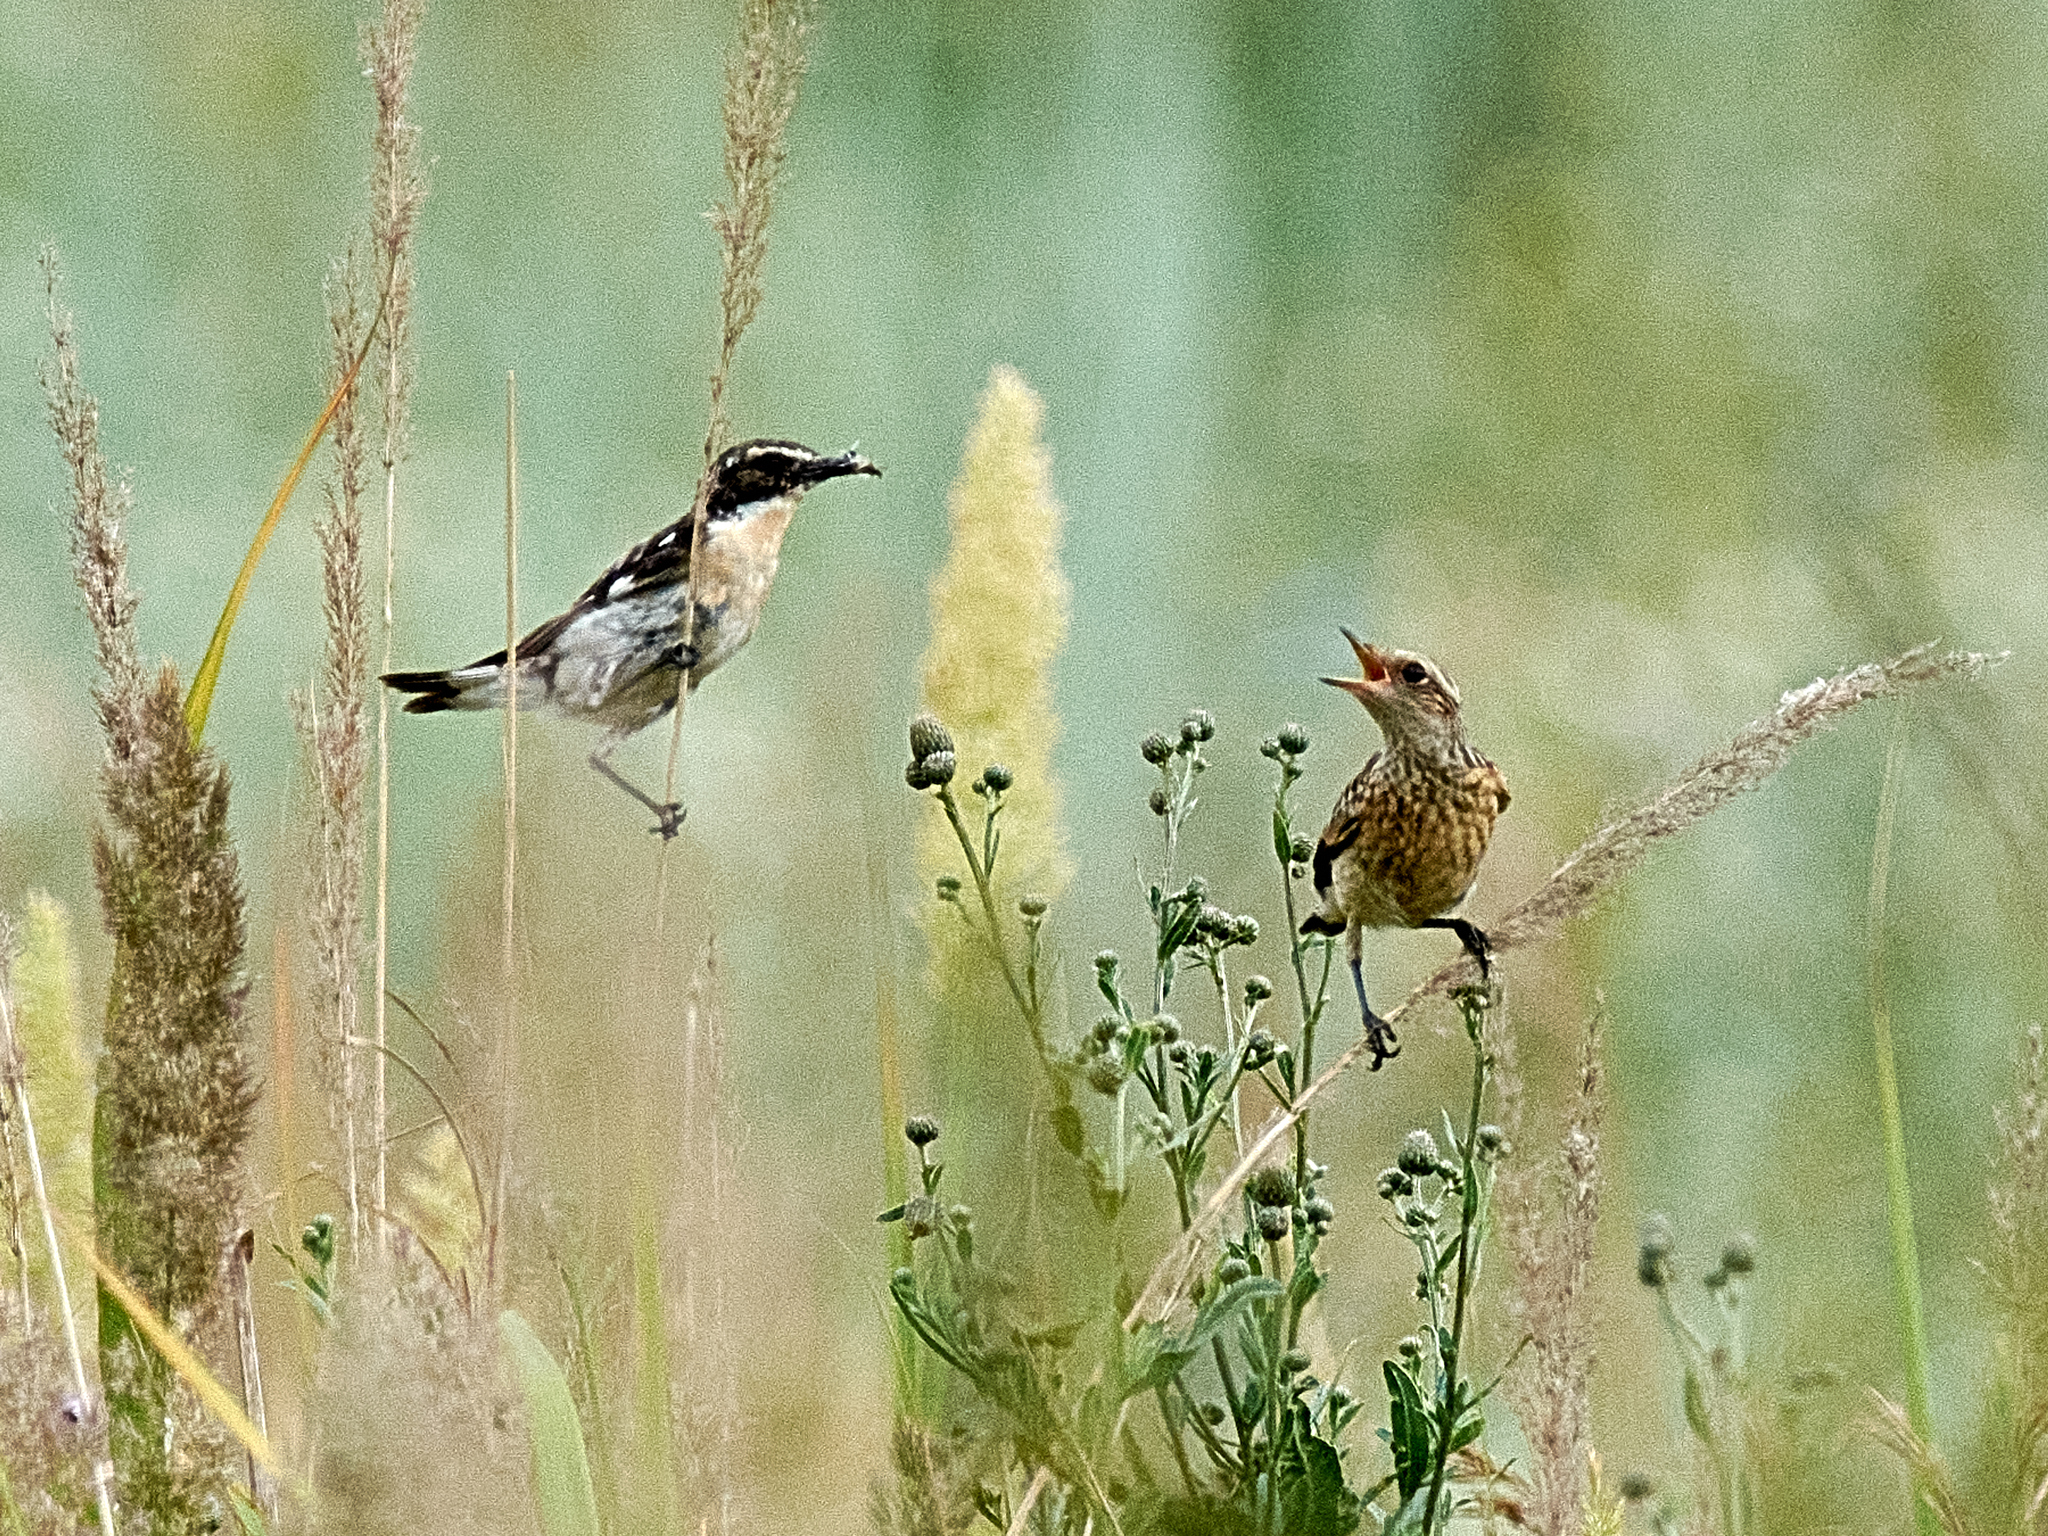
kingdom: Animalia
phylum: Chordata
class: Aves
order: Passeriformes
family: Muscicapidae
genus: Saxicola
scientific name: Saxicola rubetra
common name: Whinchat
